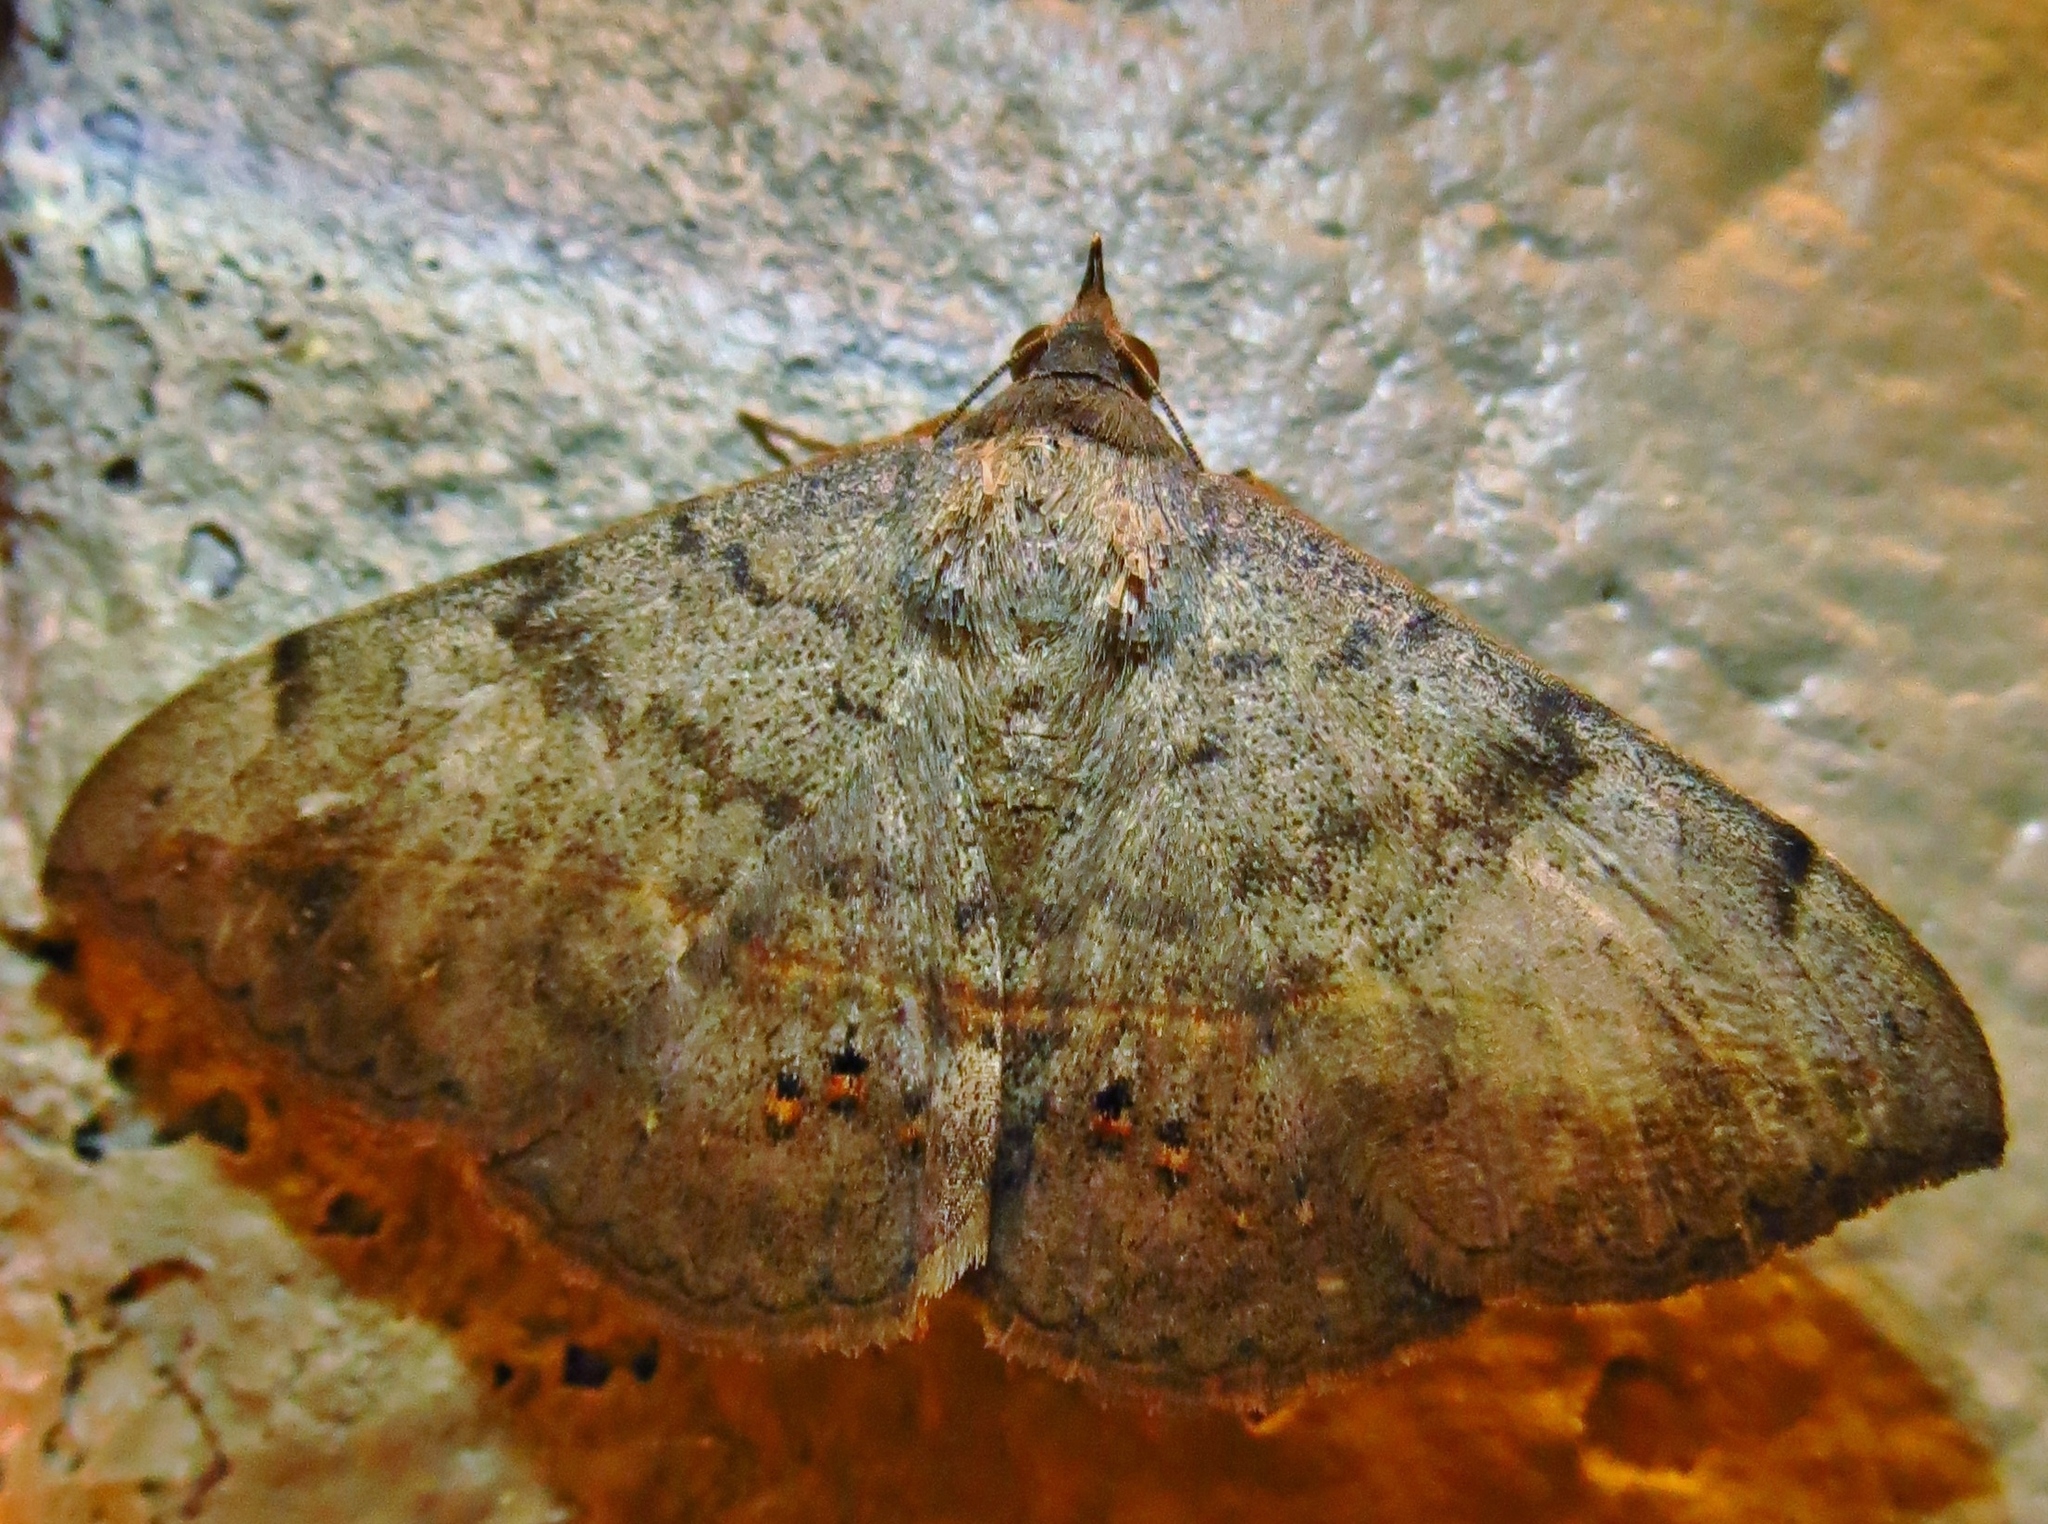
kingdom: Animalia
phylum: Arthropoda
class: Insecta
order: Lepidoptera
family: Erebidae
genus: Anticarsia
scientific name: Anticarsia gemmatalis
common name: Cutworm moth
